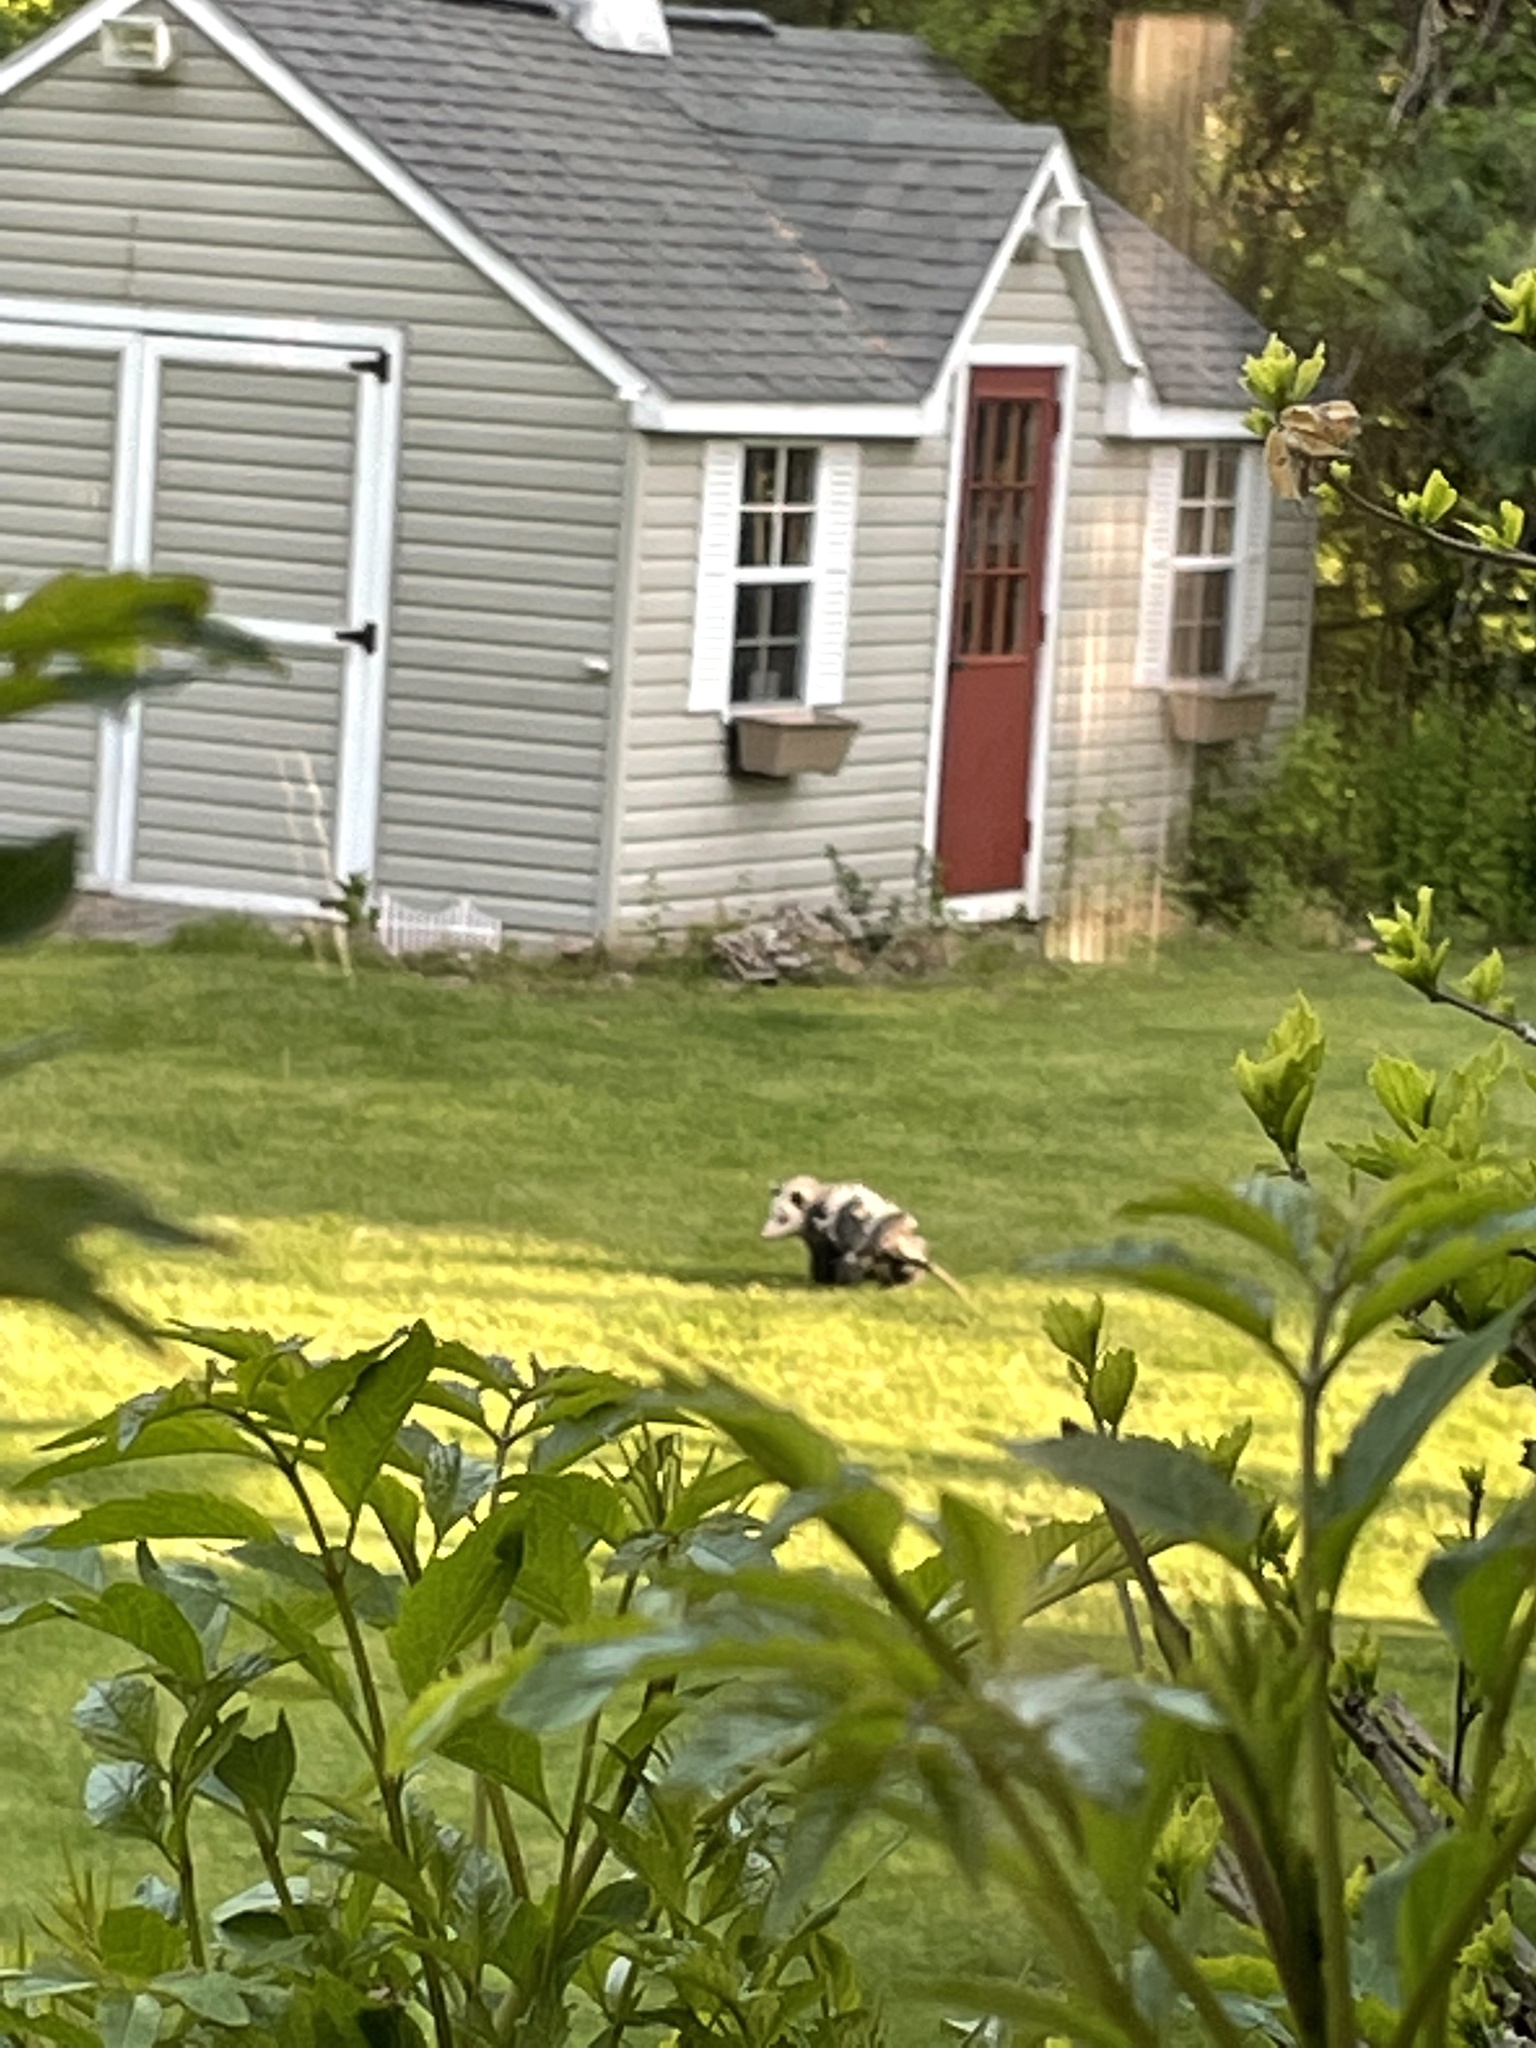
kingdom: Animalia
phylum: Chordata
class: Mammalia
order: Didelphimorphia
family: Didelphidae
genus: Didelphis
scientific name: Didelphis virginiana
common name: Virginia opossum
